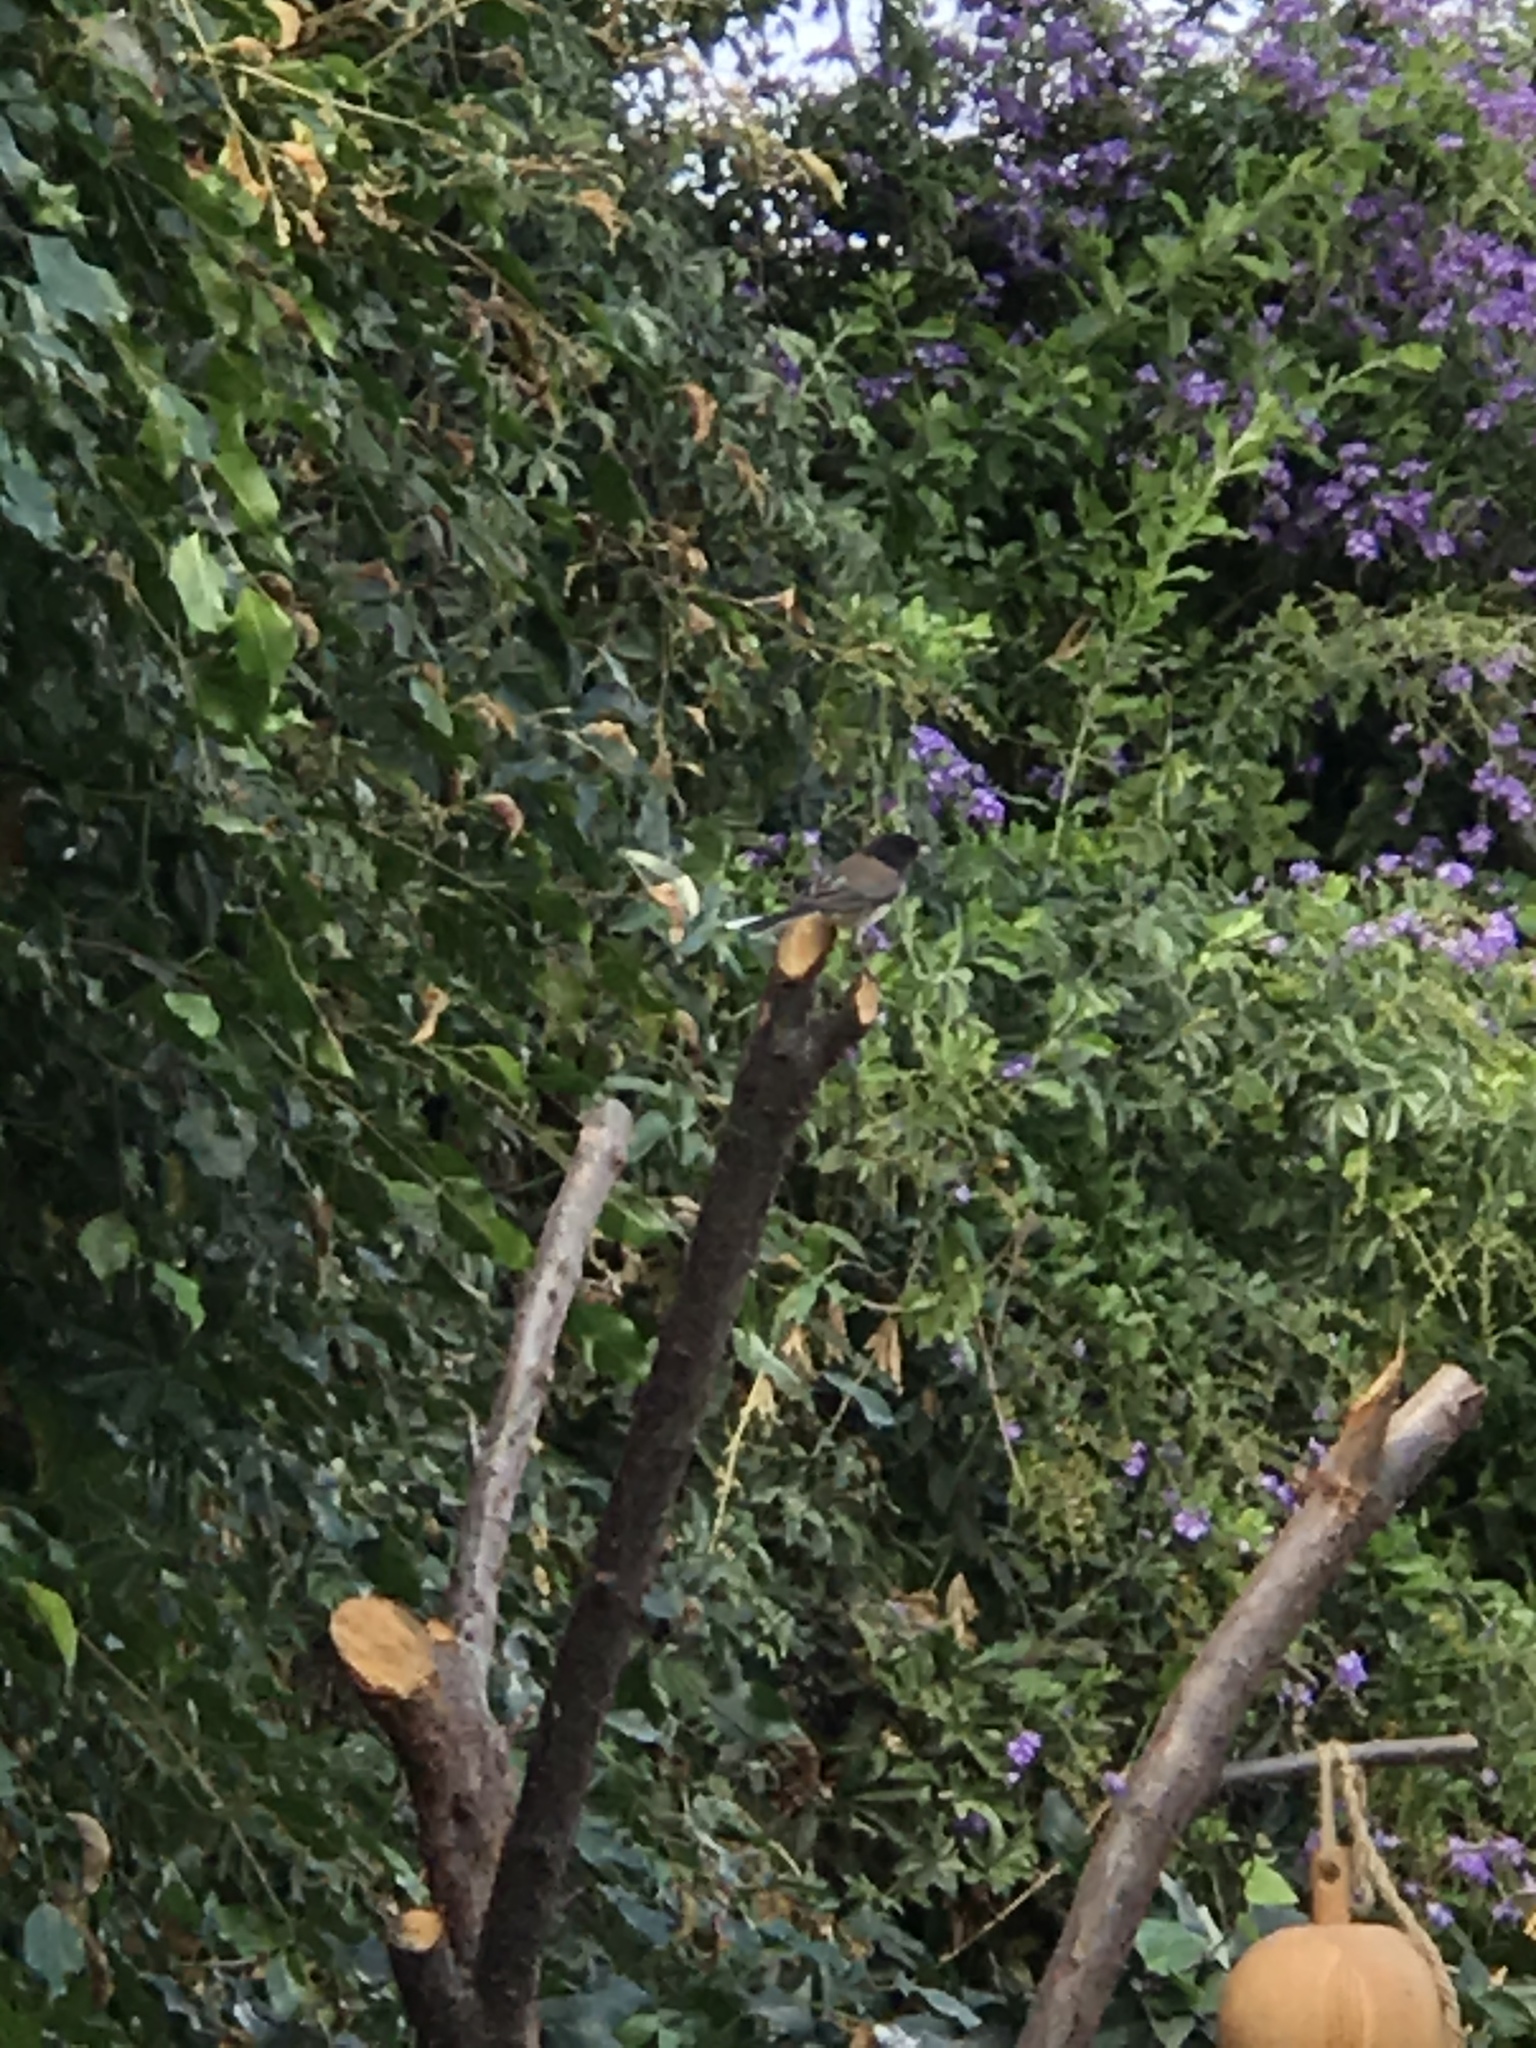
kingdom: Animalia
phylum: Chordata
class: Aves
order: Passeriformes
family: Passerellidae
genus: Junco
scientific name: Junco hyemalis
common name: Dark-eyed junco
